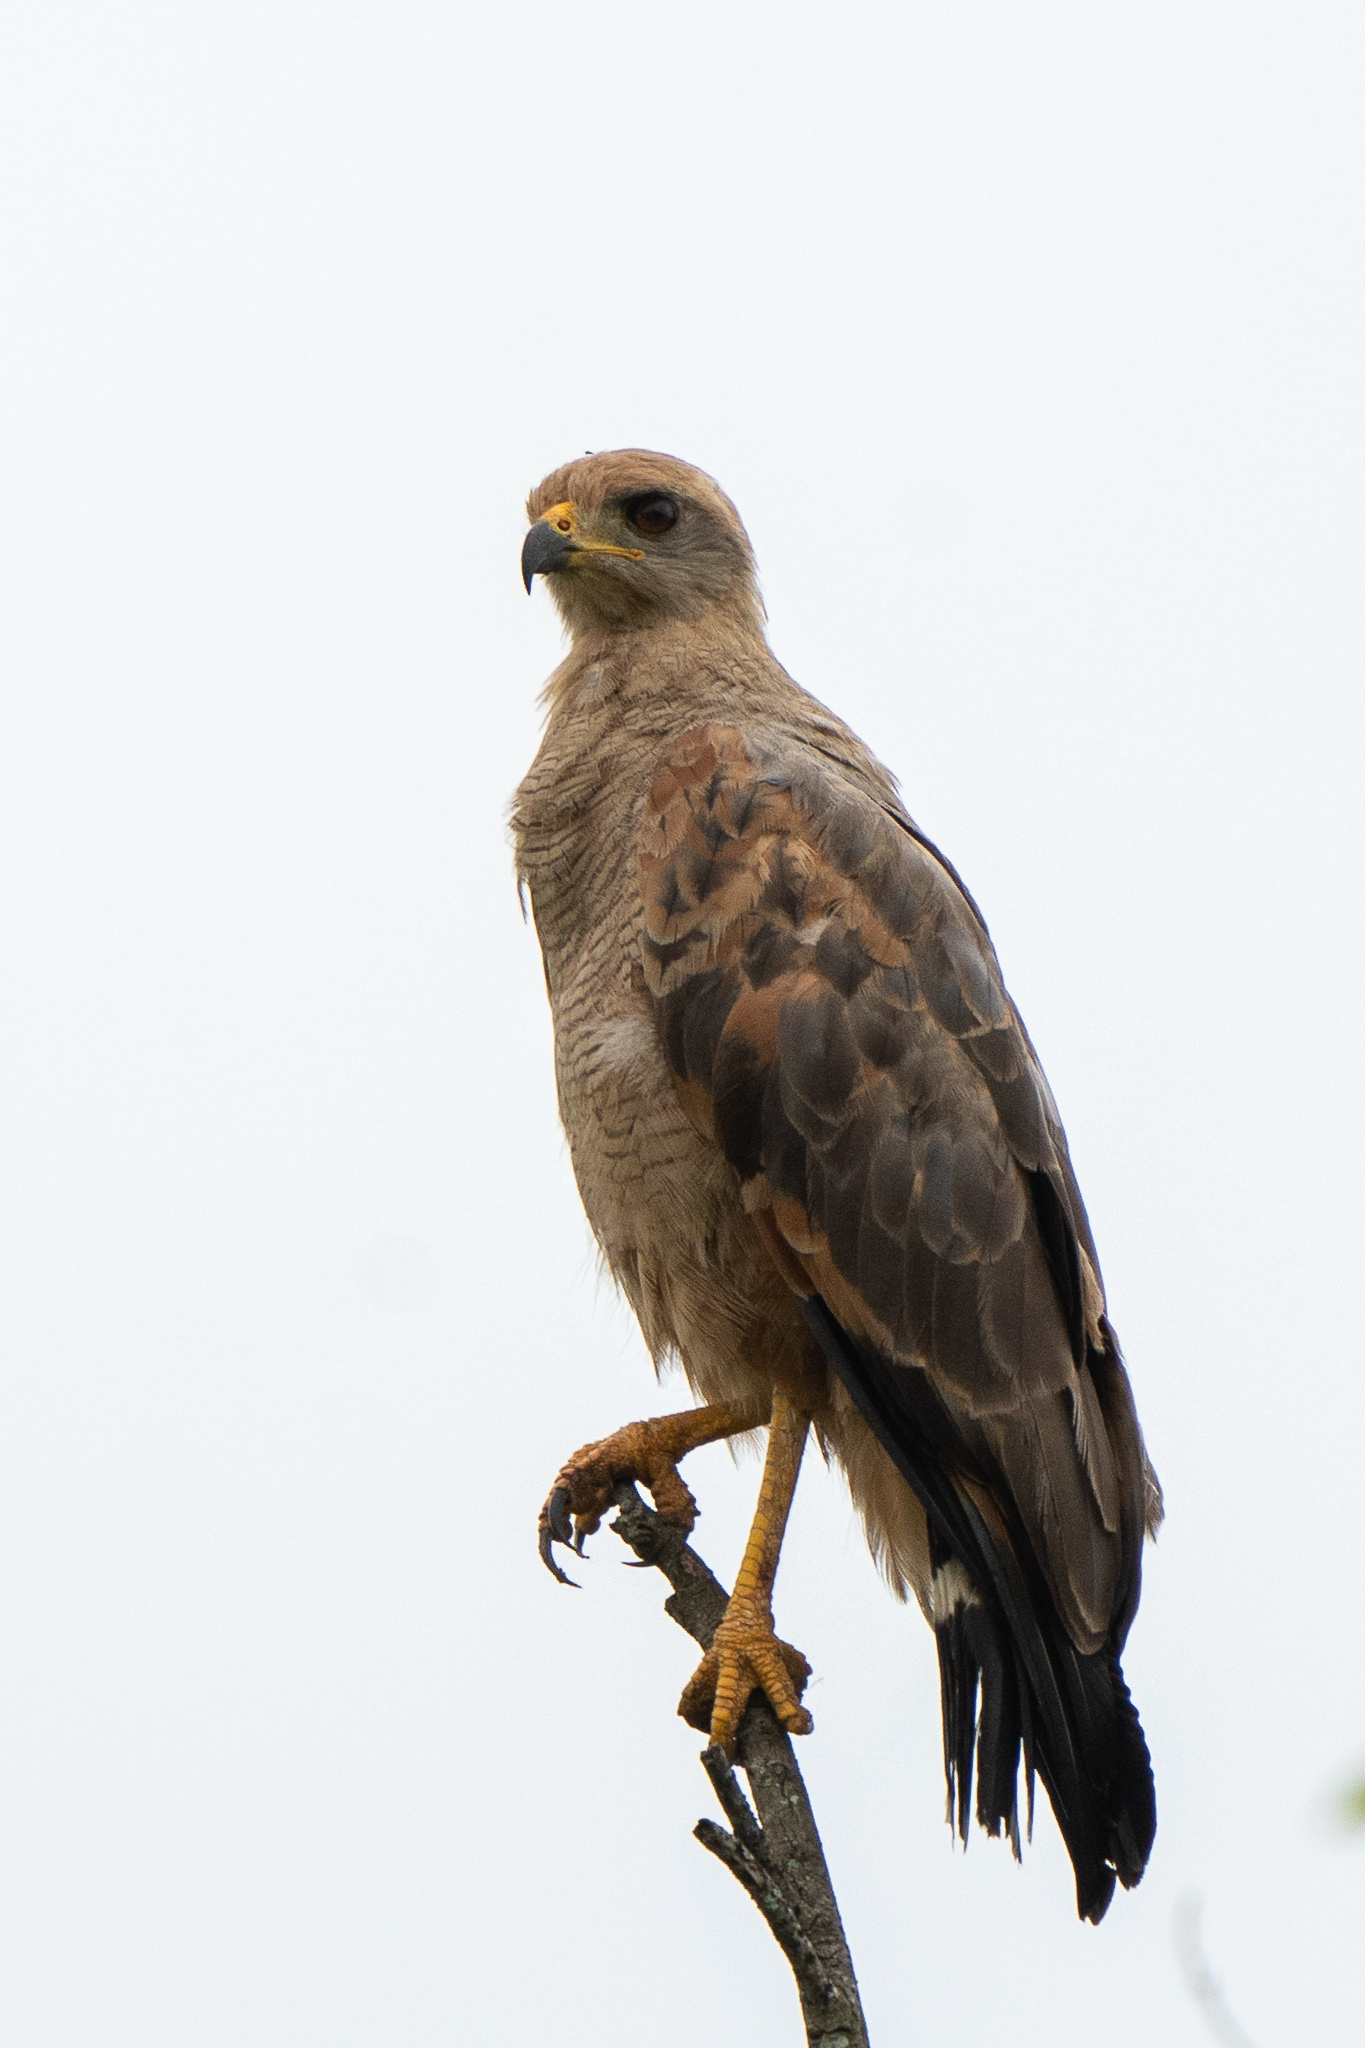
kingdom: Animalia
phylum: Chordata
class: Aves
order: Accipitriformes
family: Accipitridae
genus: Buteogallus
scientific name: Buteogallus meridionalis
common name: Savanna hawk
